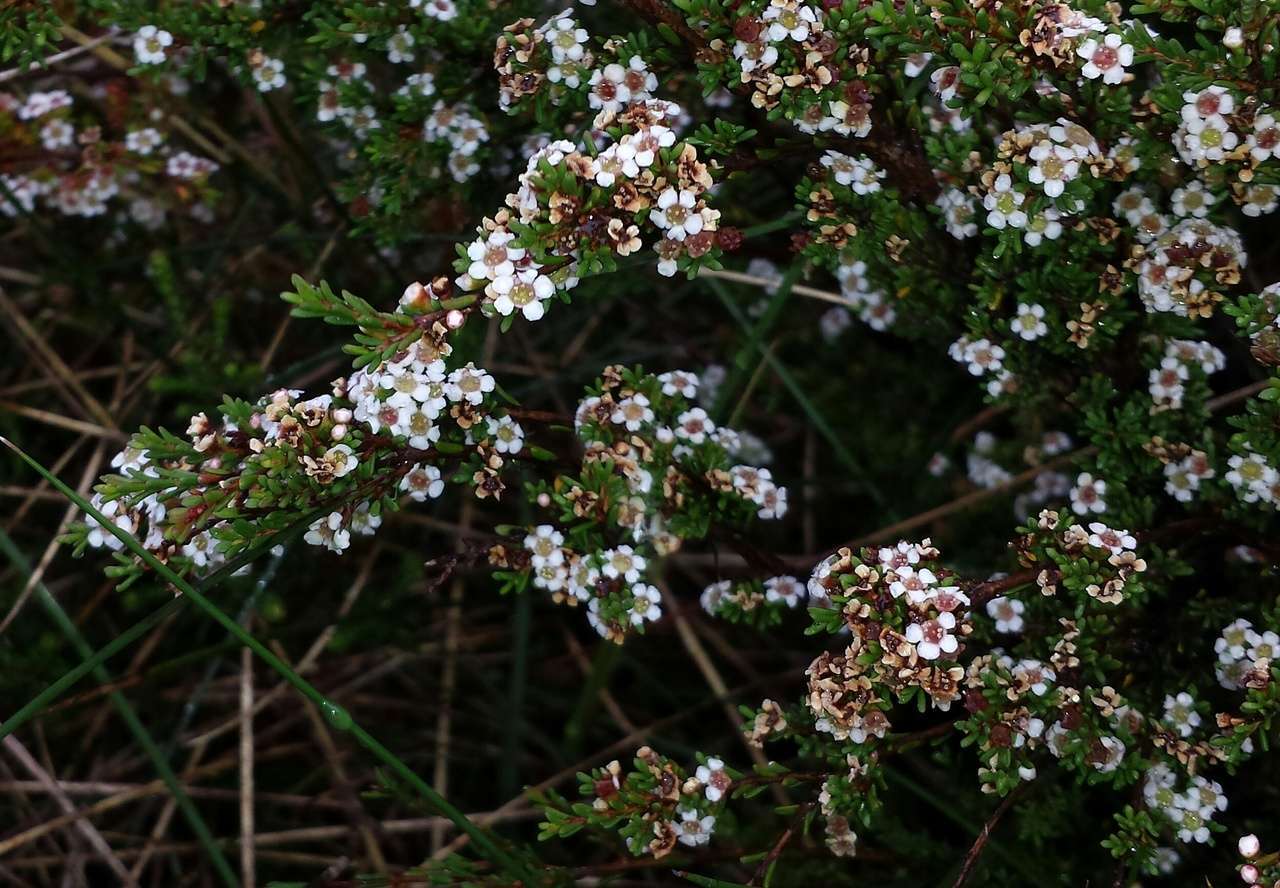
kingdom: Plantae
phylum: Tracheophyta
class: Magnoliopsida
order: Myrtales
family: Myrtaceae
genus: Baeckea
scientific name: Baeckea gunniana
